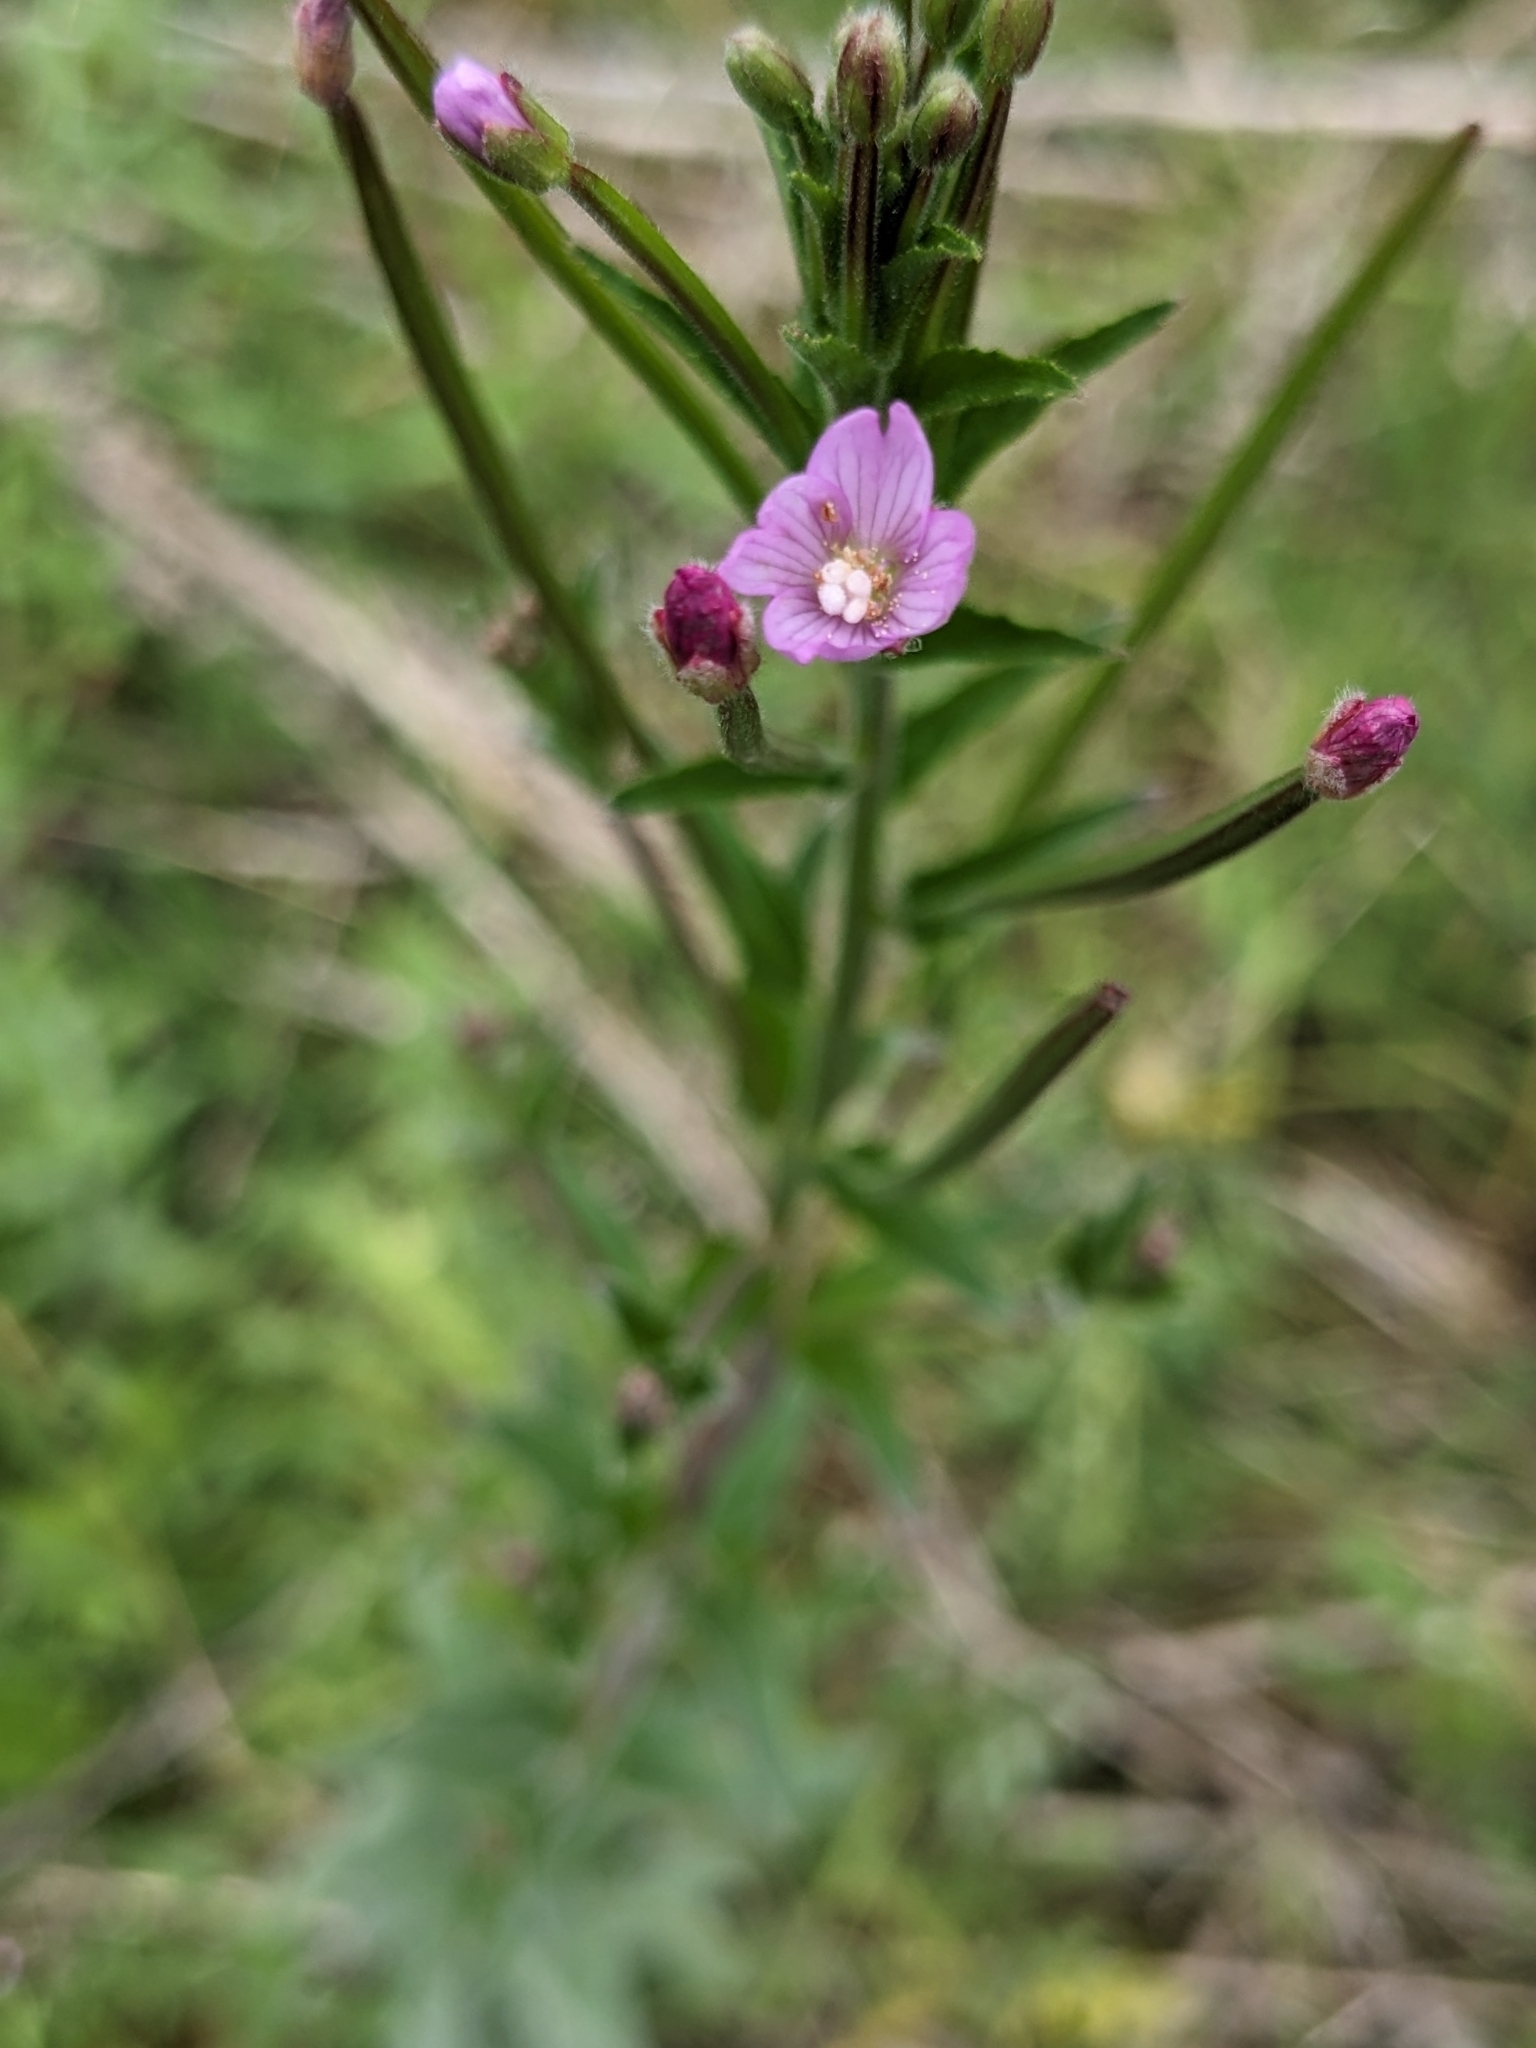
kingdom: Plantae
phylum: Tracheophyta
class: Magnoliopsida
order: Myrtales
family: Onagraceae
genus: Epilobium
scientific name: Epilobium parviflorum
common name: Hoary willowherb
